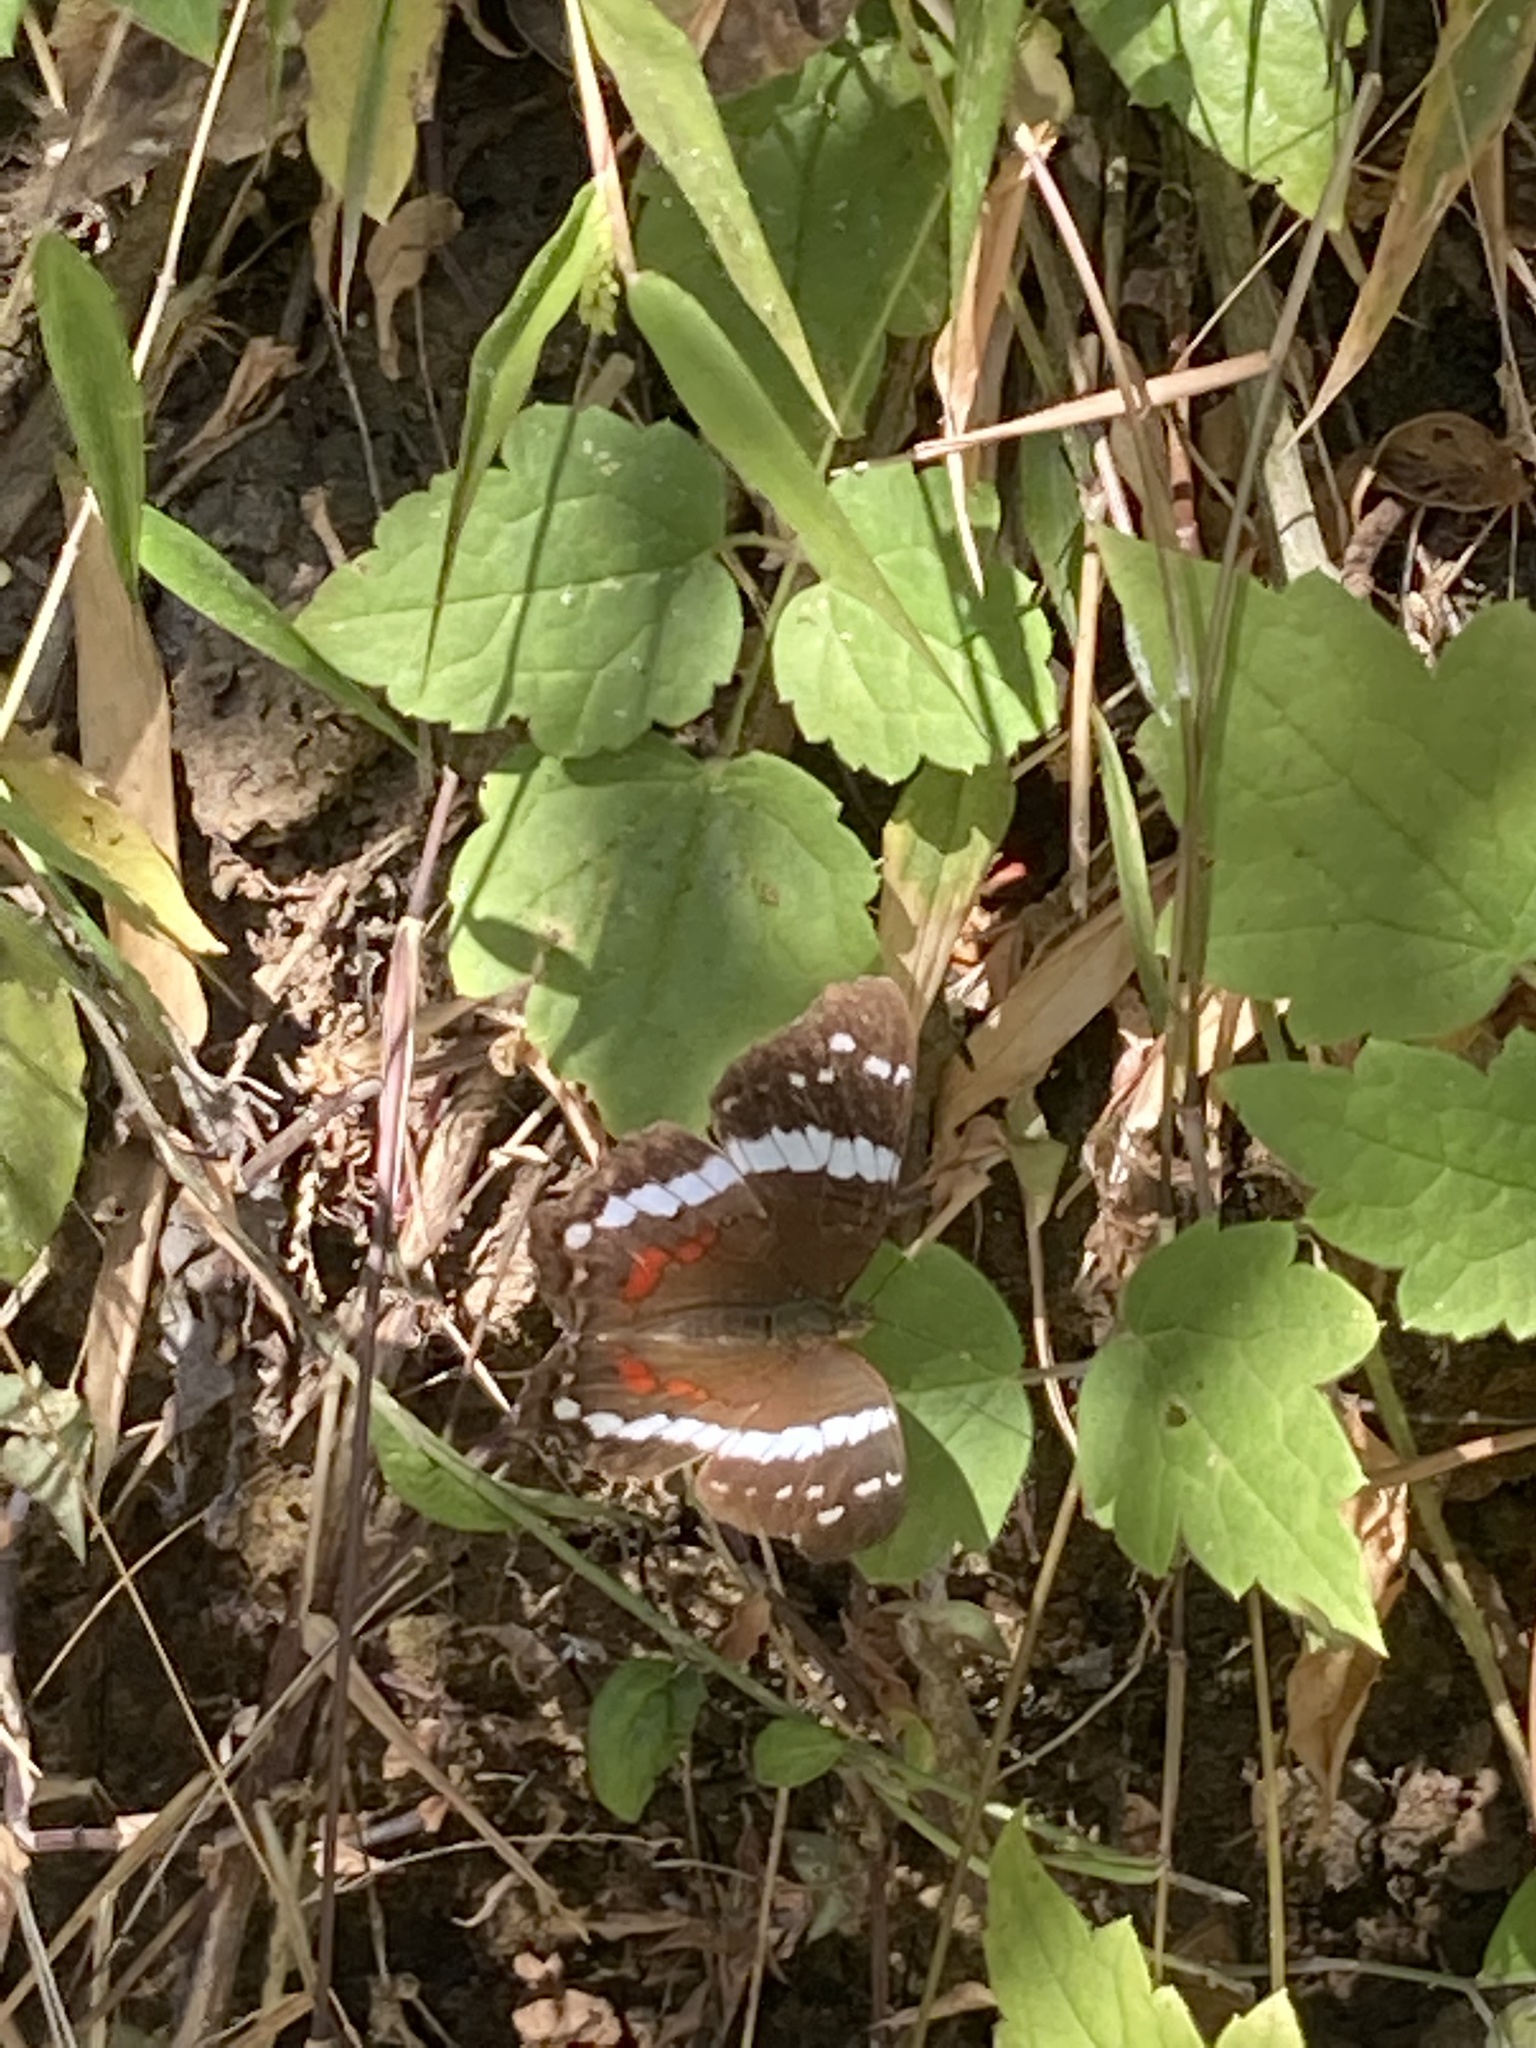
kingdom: Animalia
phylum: Arthropoda
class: Insecta
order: Lepidoptera
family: Nymphalidae
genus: Anartia
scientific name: Anartia fatima
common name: Banded peacock
